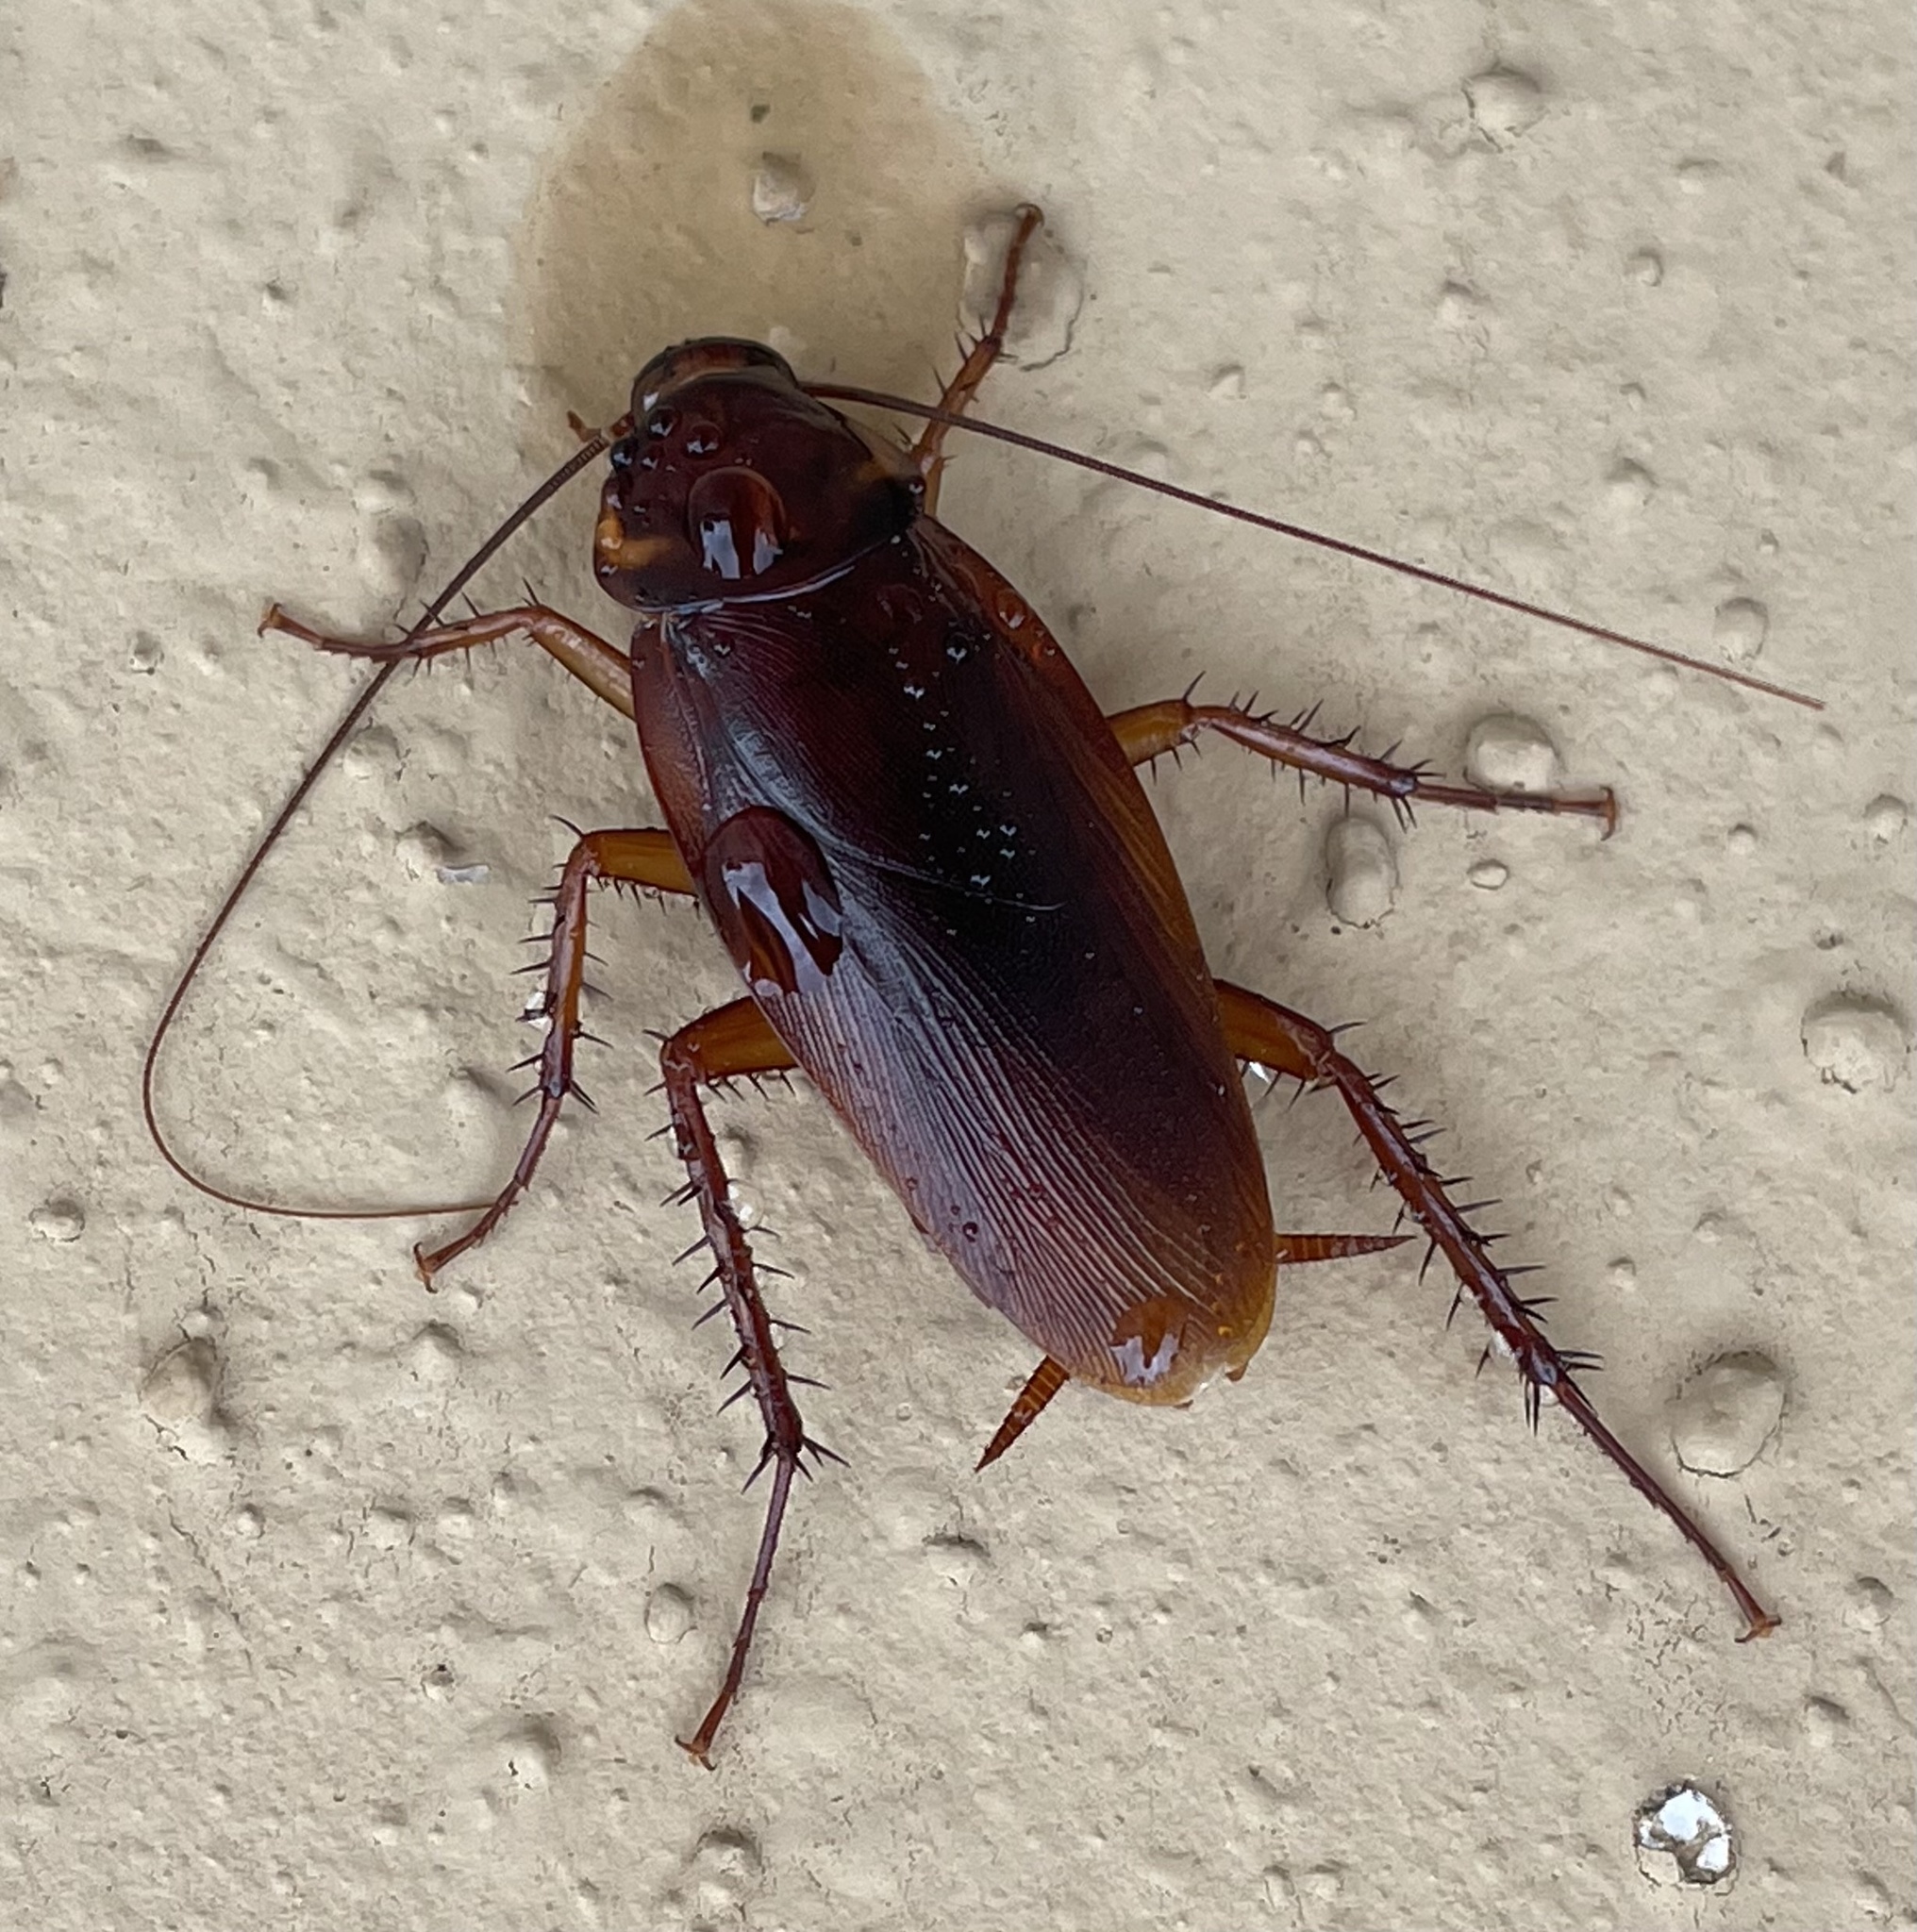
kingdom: Animalia
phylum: Arthropoda
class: Insecta
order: Blattodea
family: Blattidae
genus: Periplaneta
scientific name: Periplaneta americana
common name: American cockroach
